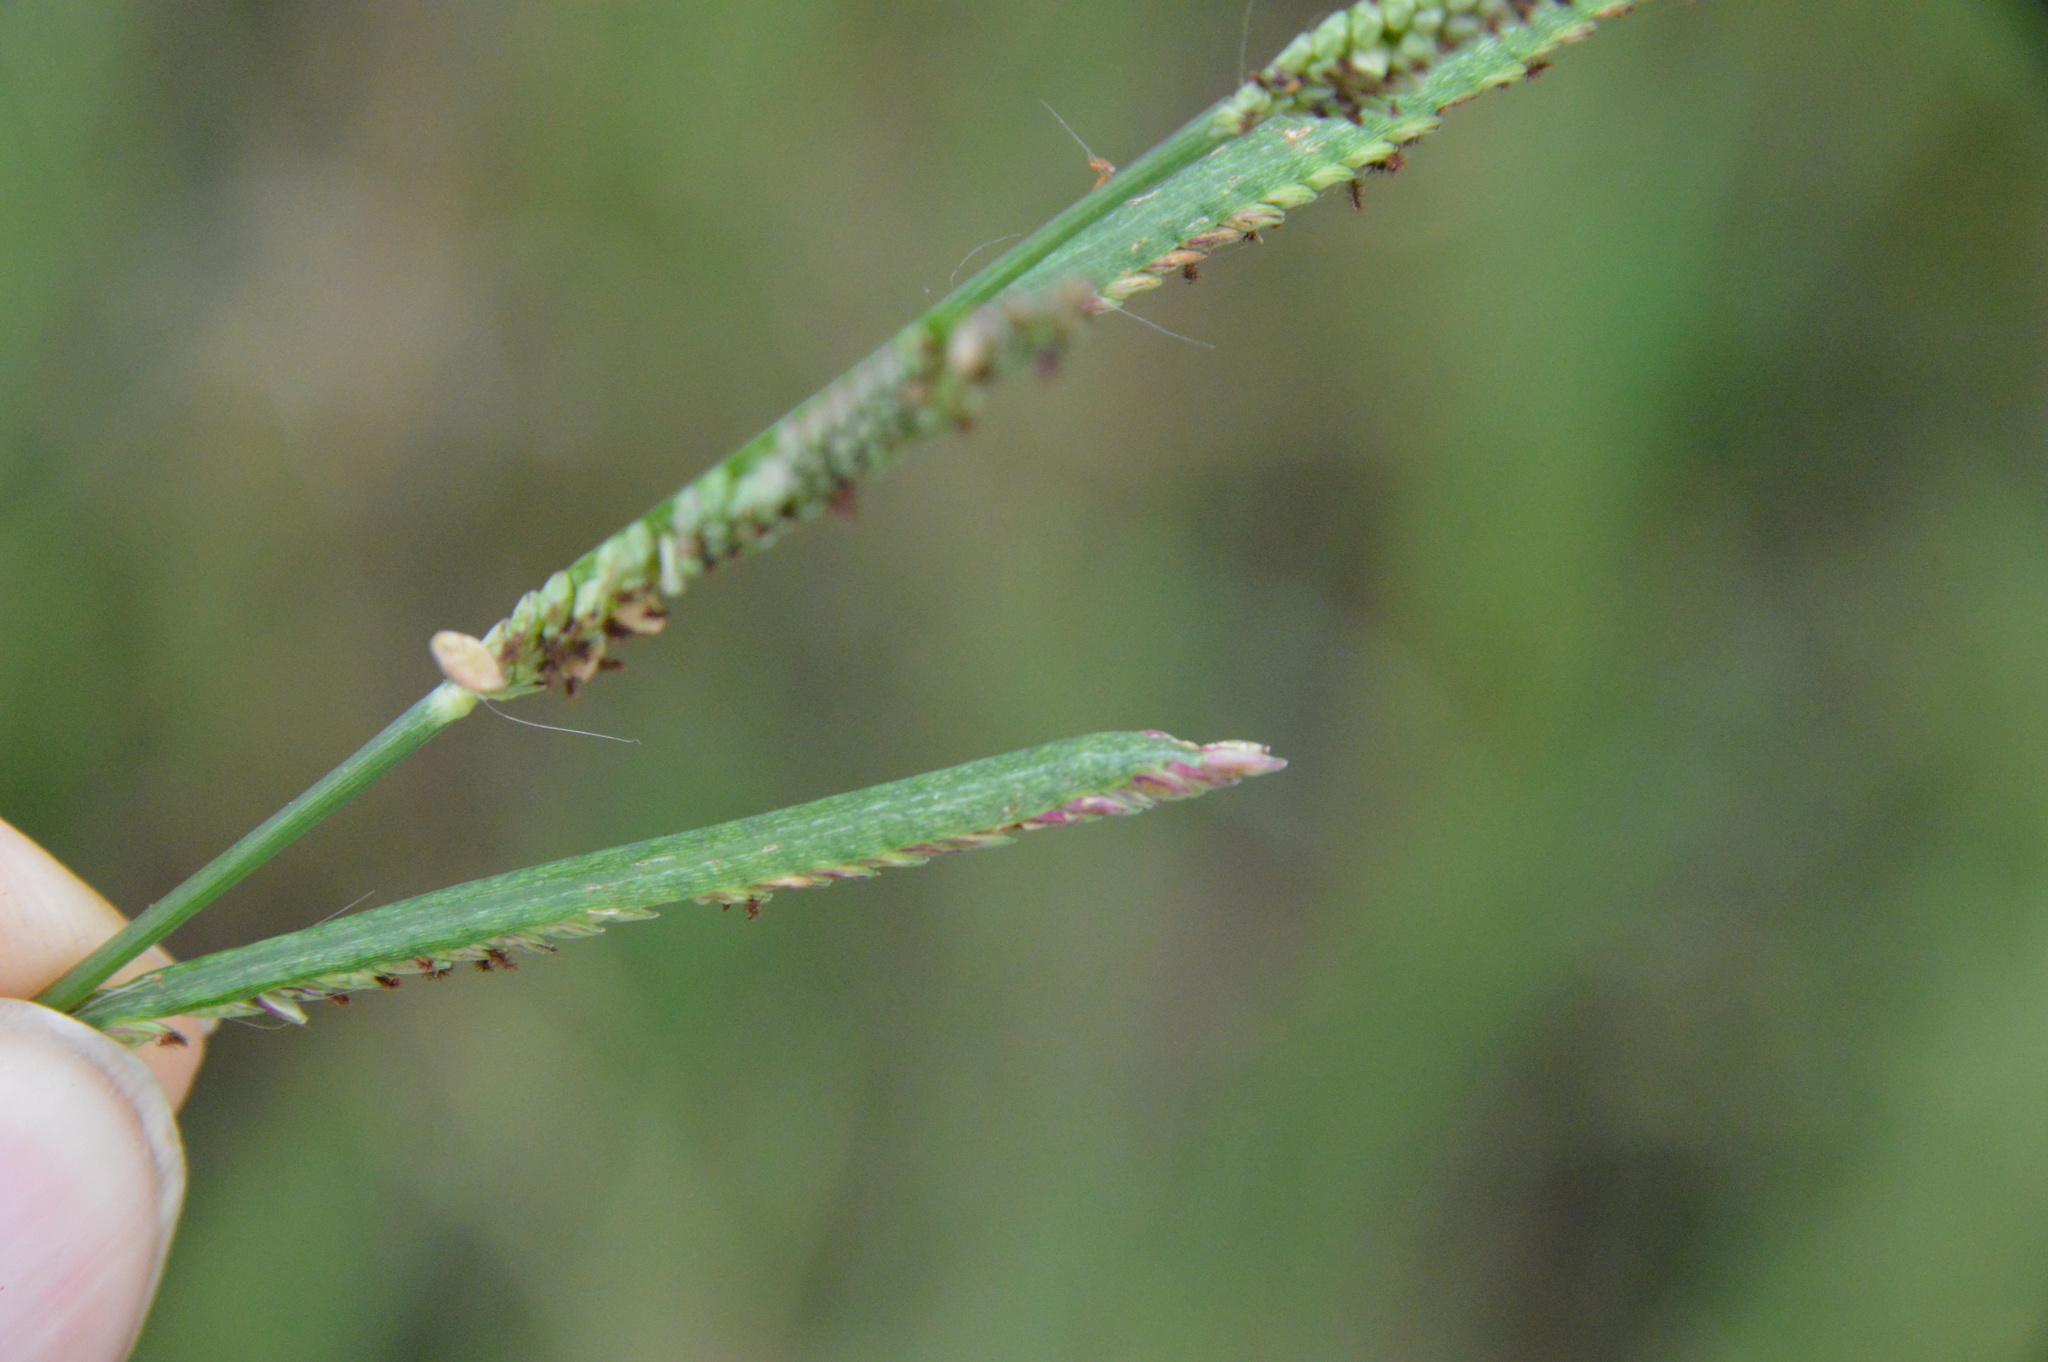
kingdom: Plantae
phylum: Tracheophyta
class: Liliopsida
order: Poales
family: Poaceae
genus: Paspalum
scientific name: Paspalum denticulatum
